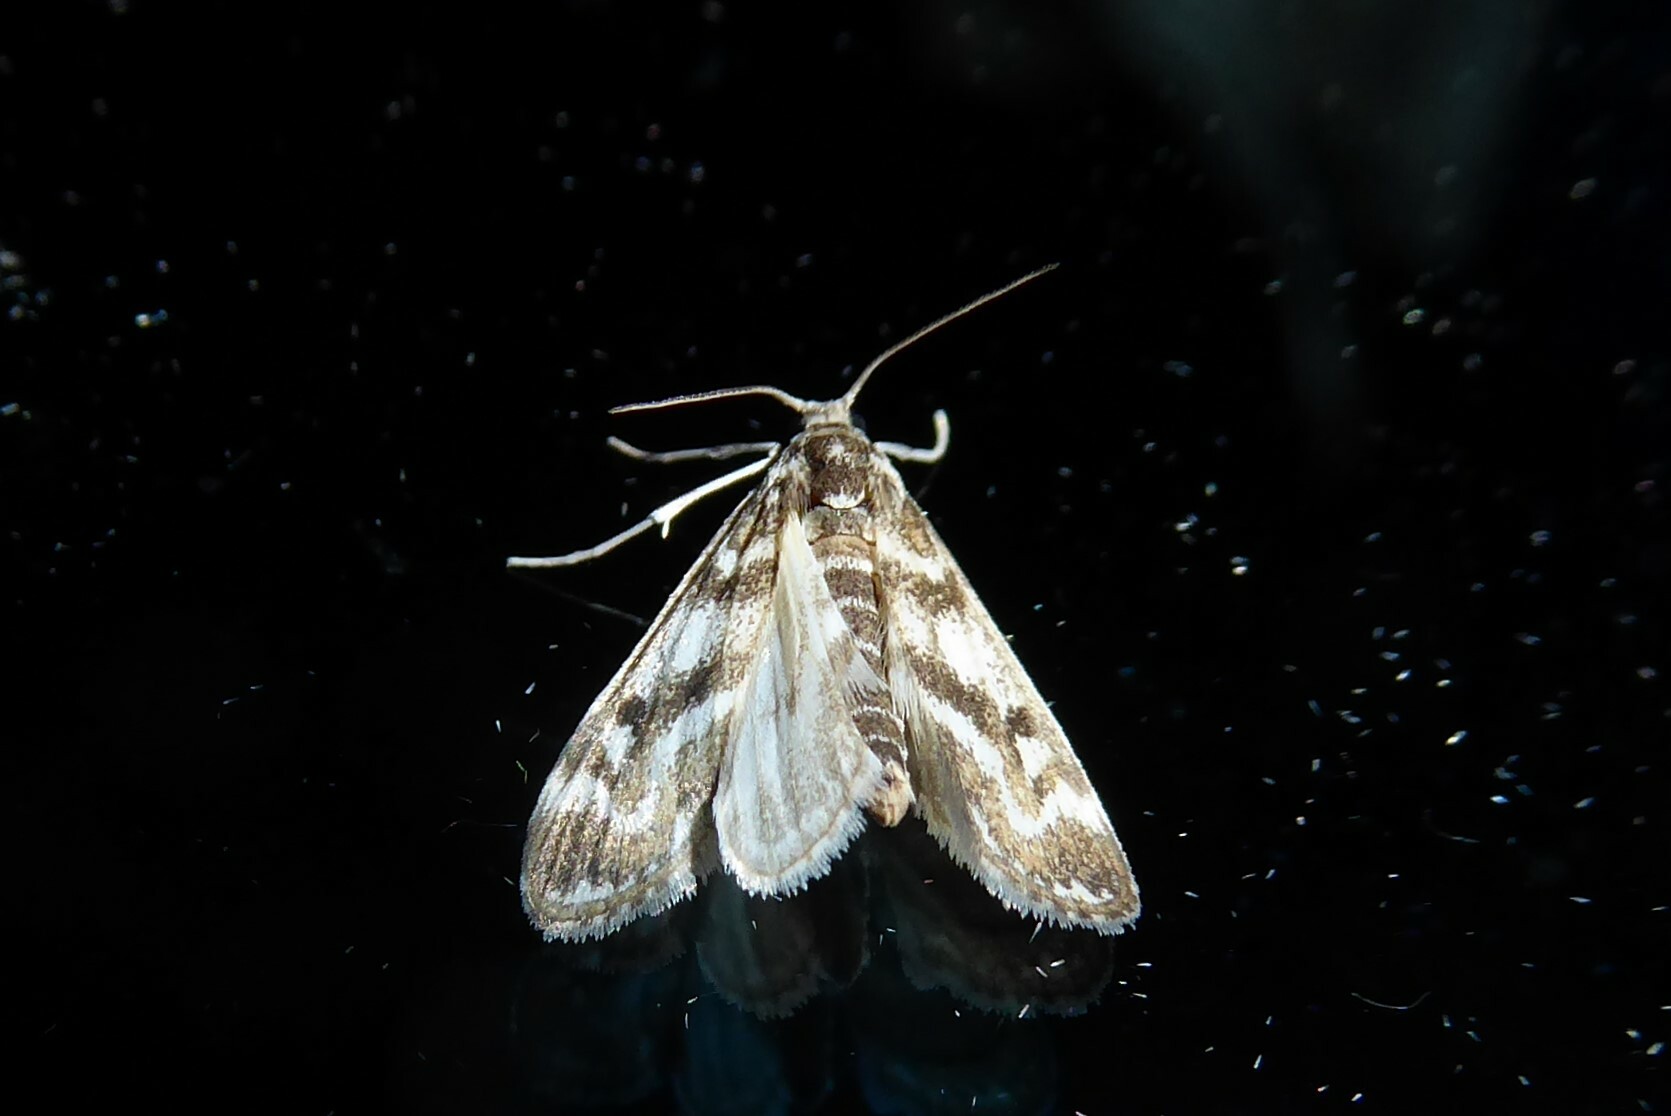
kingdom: Animalia
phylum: Arthropoda
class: Insecta
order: Lepidoptera
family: Crambidae
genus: Hygraula
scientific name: Hygraula nitens
